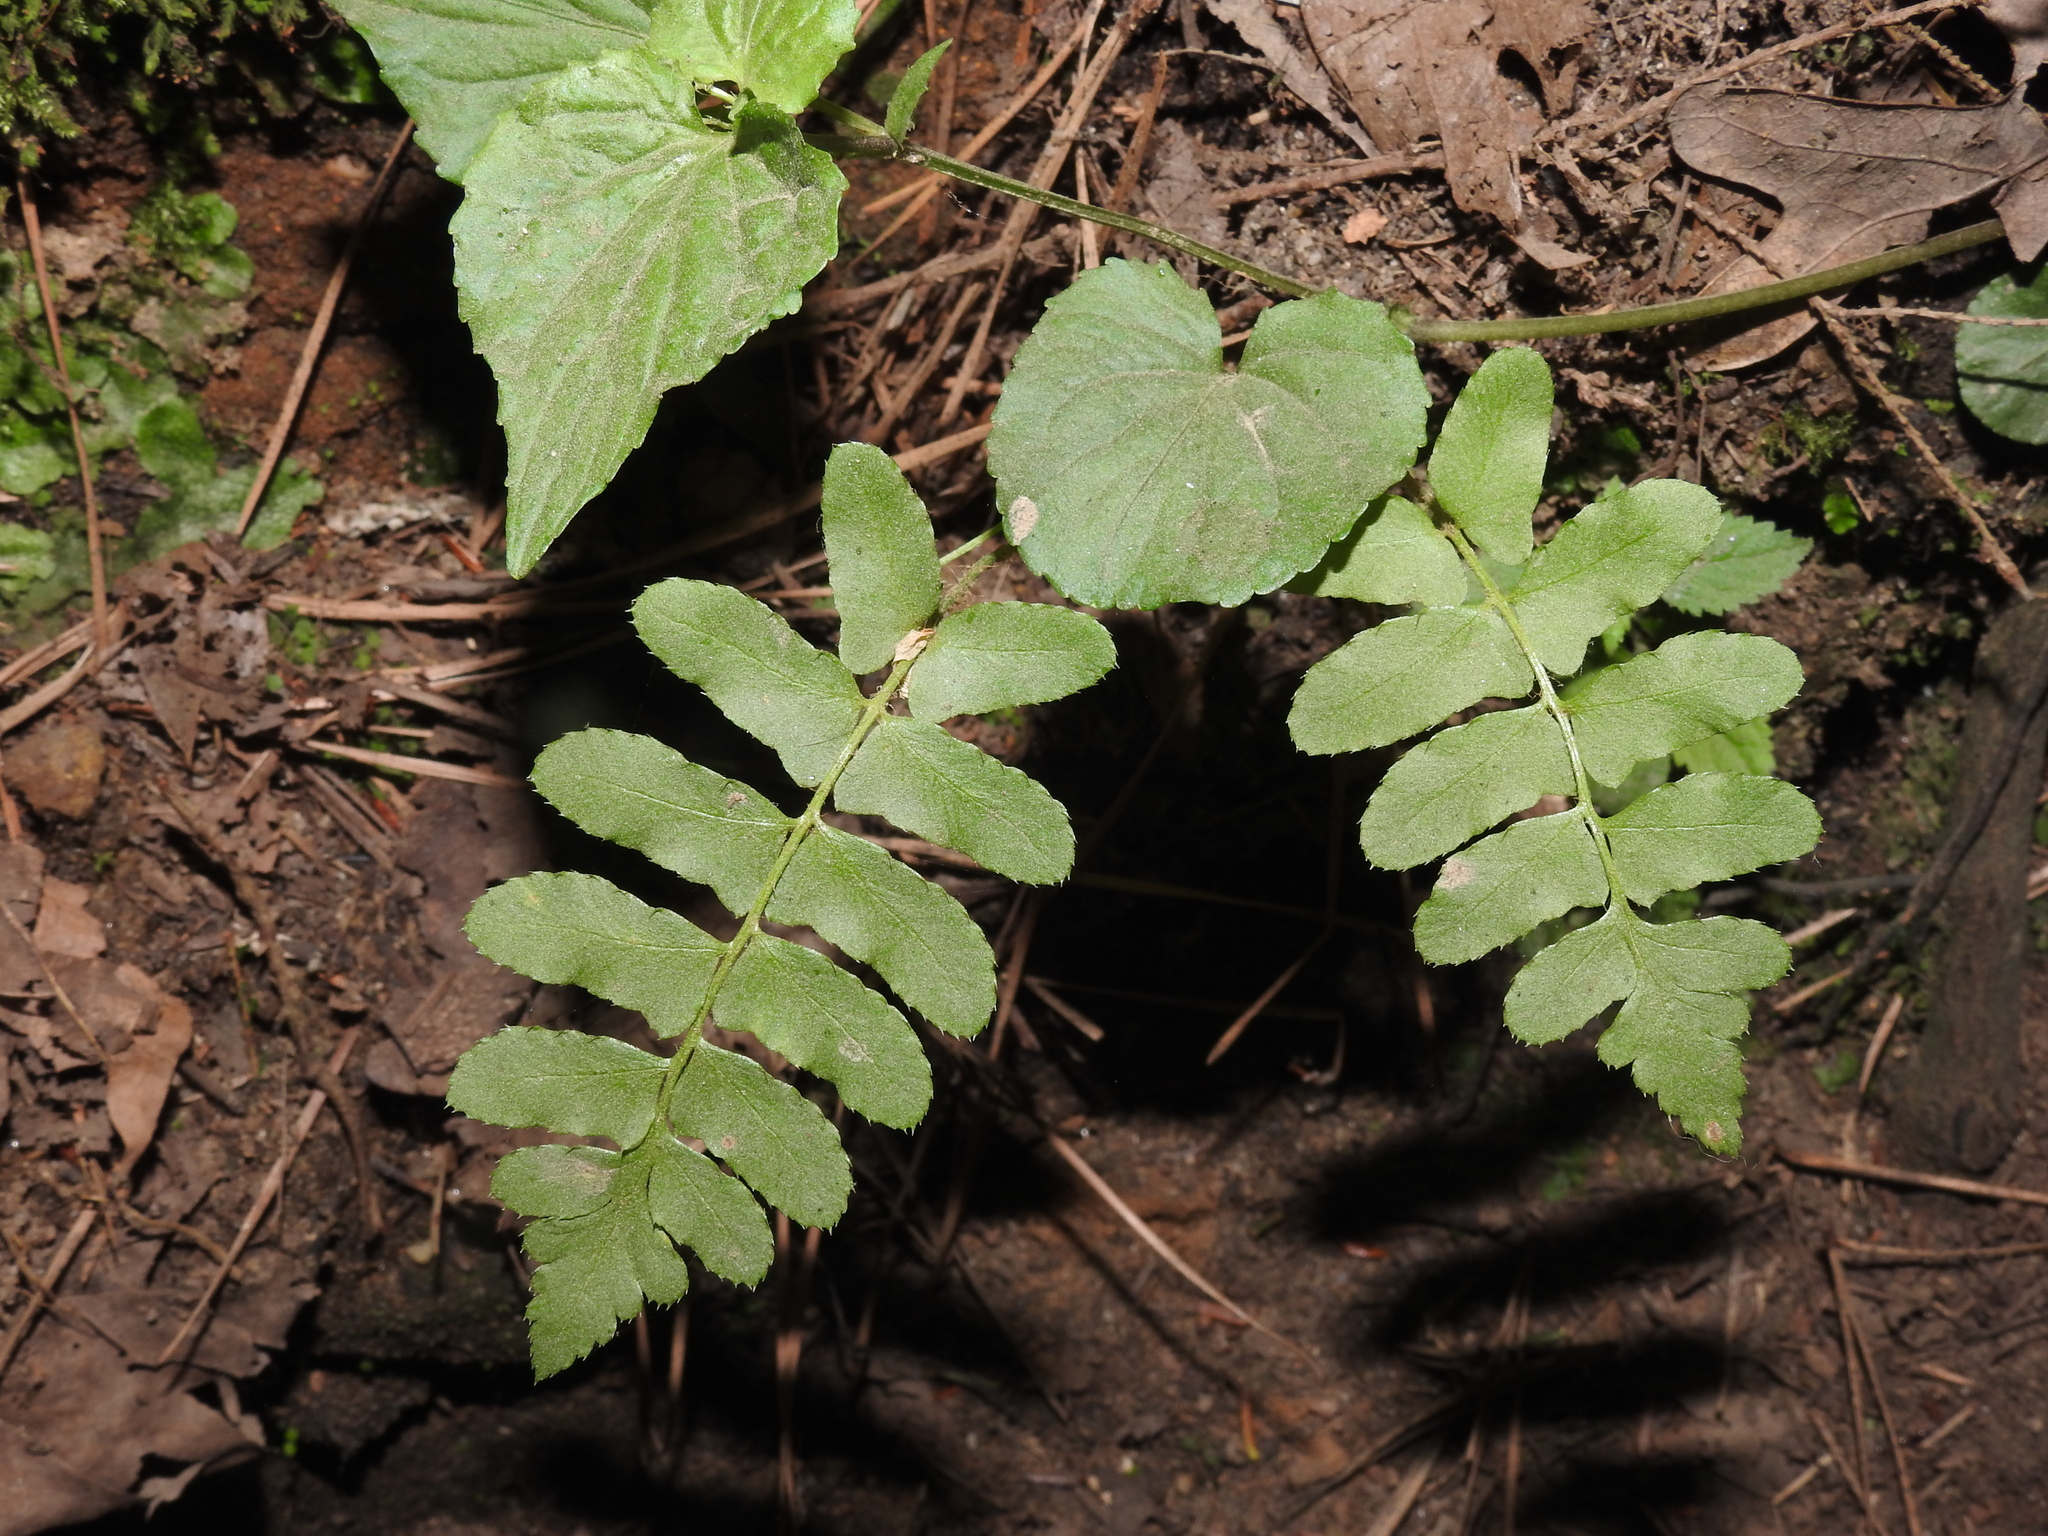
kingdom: Plantae
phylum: Tracheophyta
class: Polypodiopsida
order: Polypodiales
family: Dryopteridaceae
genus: Polystichum
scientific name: Polystichum acrostichoides
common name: Christmas fern
